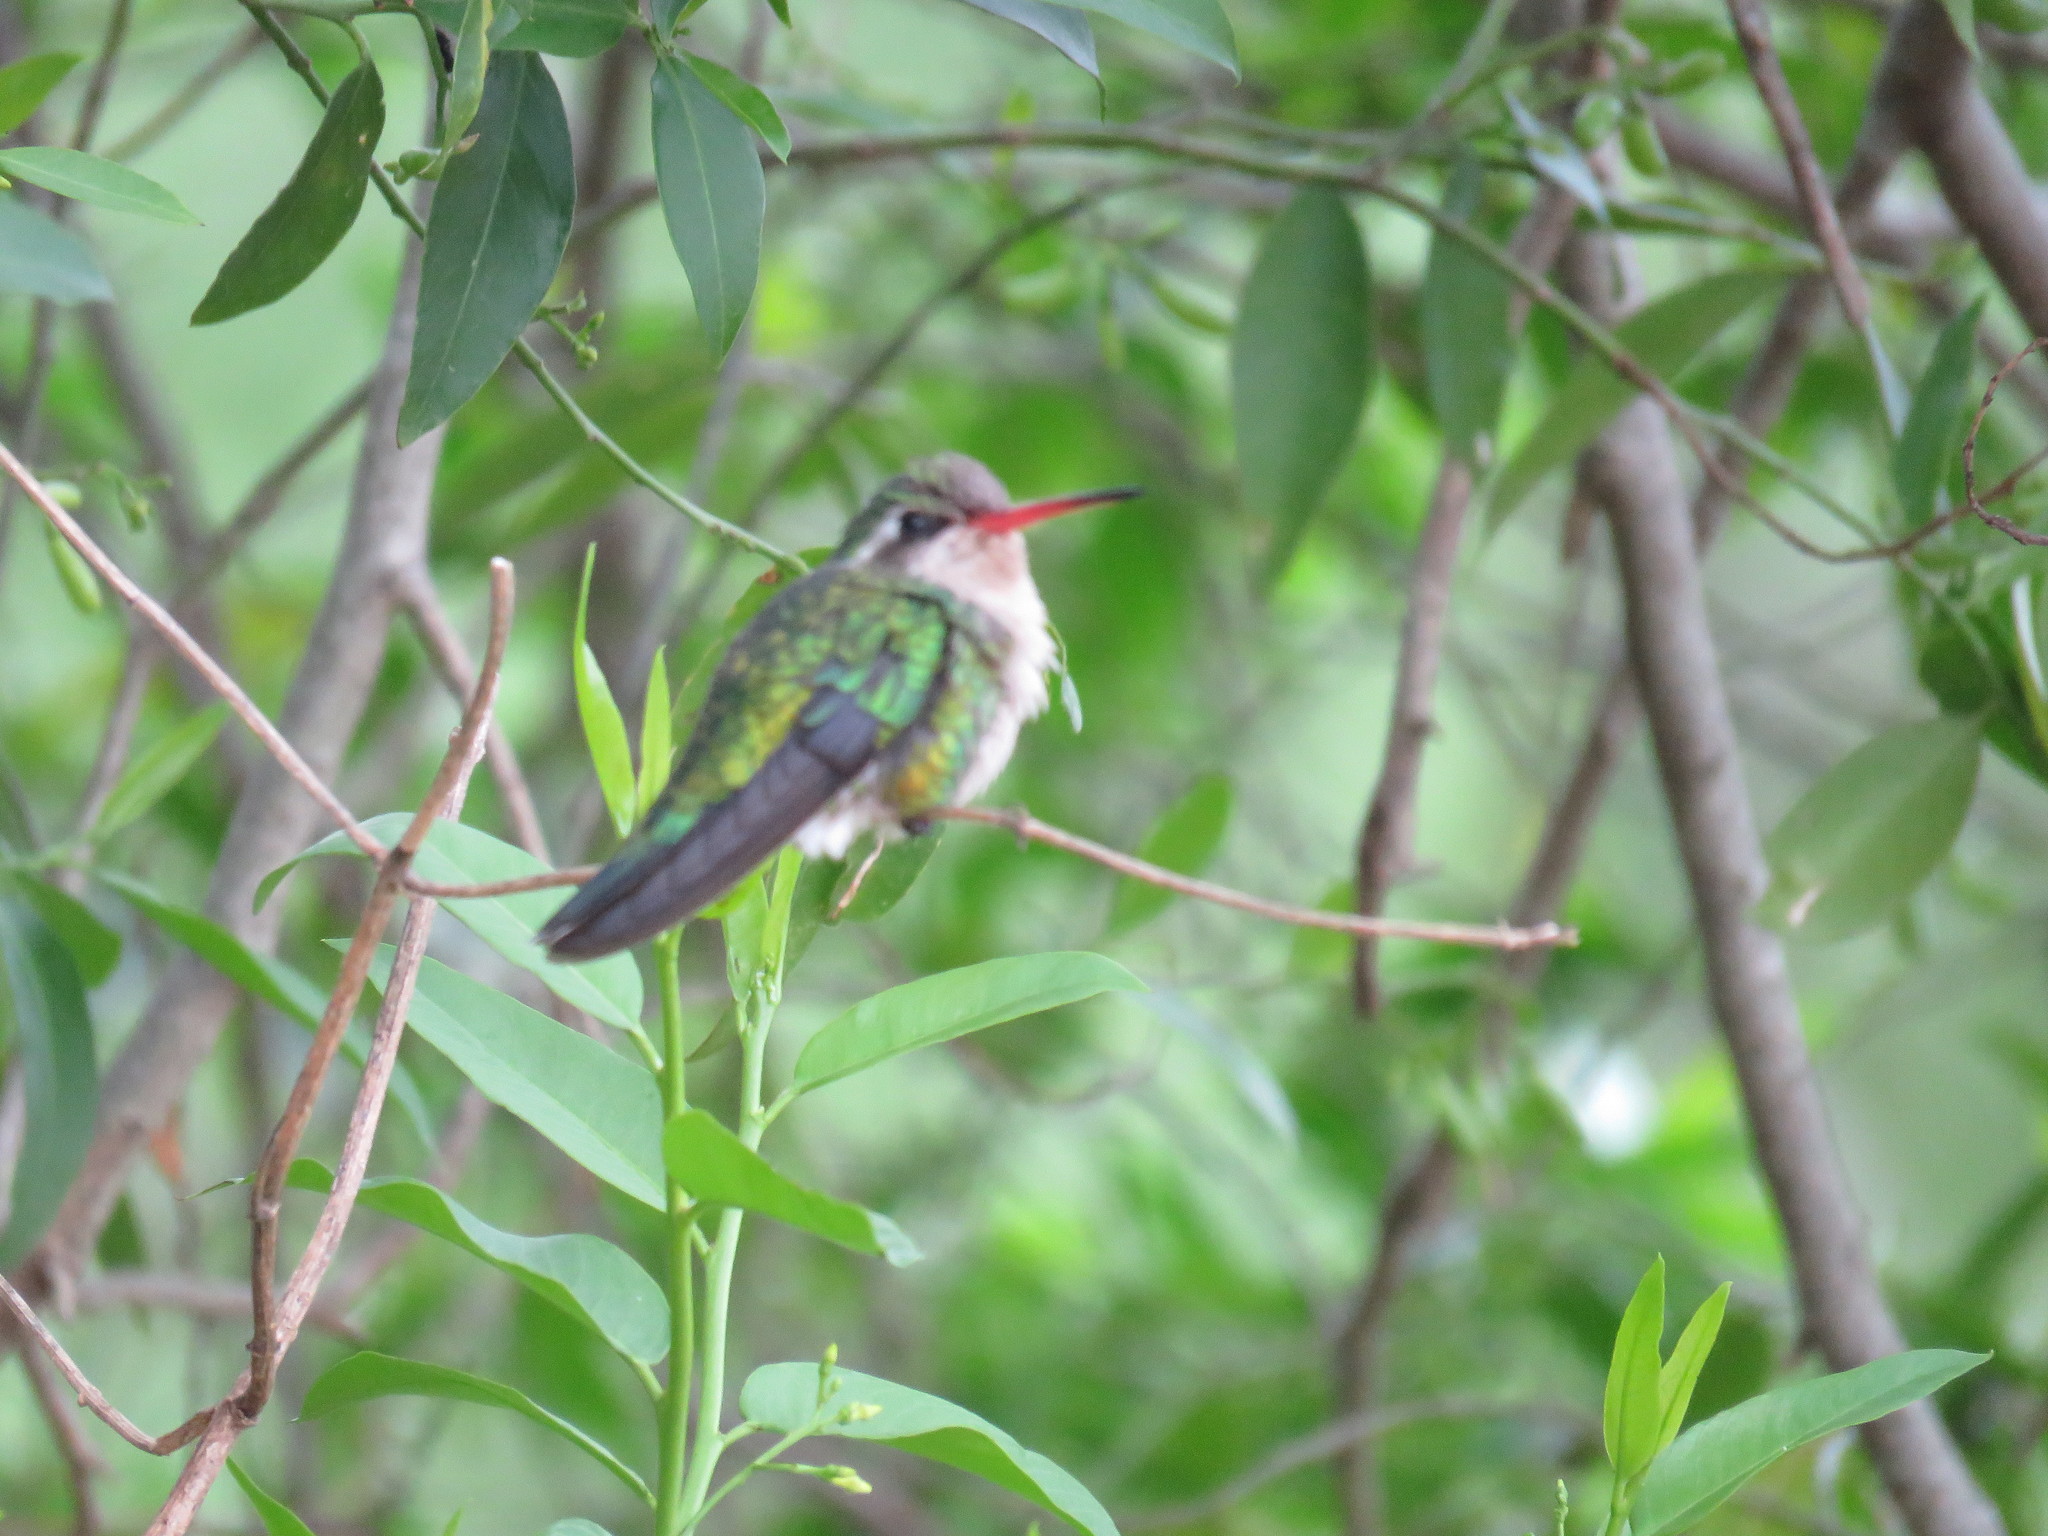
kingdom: Animalia
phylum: Chordata
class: Aves
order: Apodiformes
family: Trochilidae
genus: Chlorostilbon
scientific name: Chlorostilbon lucidus
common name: Glittering-bellied emerald
